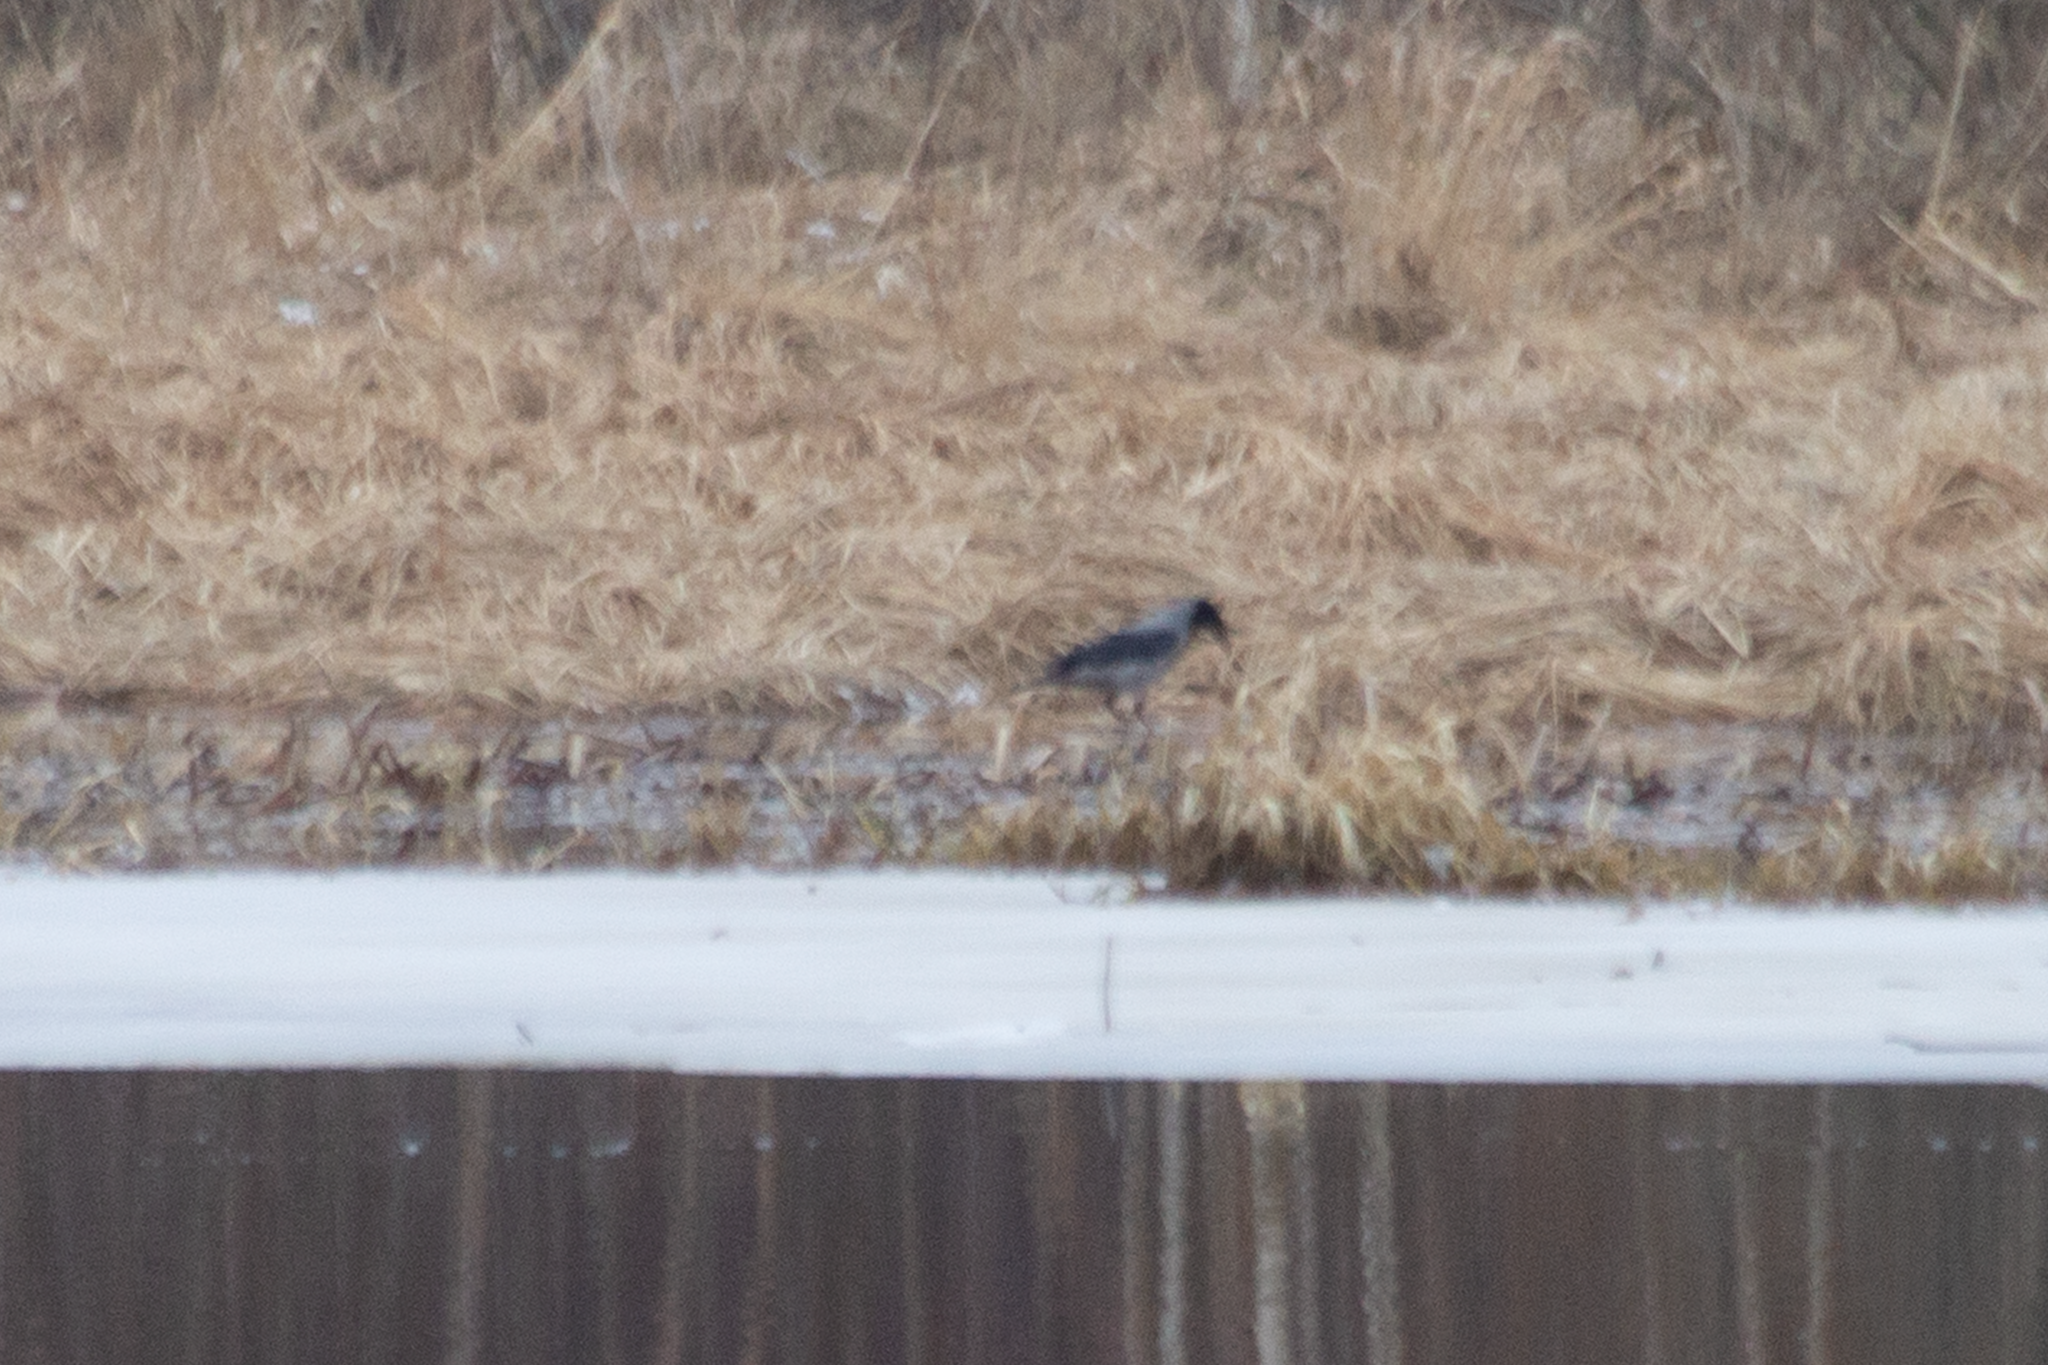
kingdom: Animalia
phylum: Chordata
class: Aves
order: Passeriformes
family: Corvidae
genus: Corvus
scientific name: Corvus cornix
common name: Hooded crow
